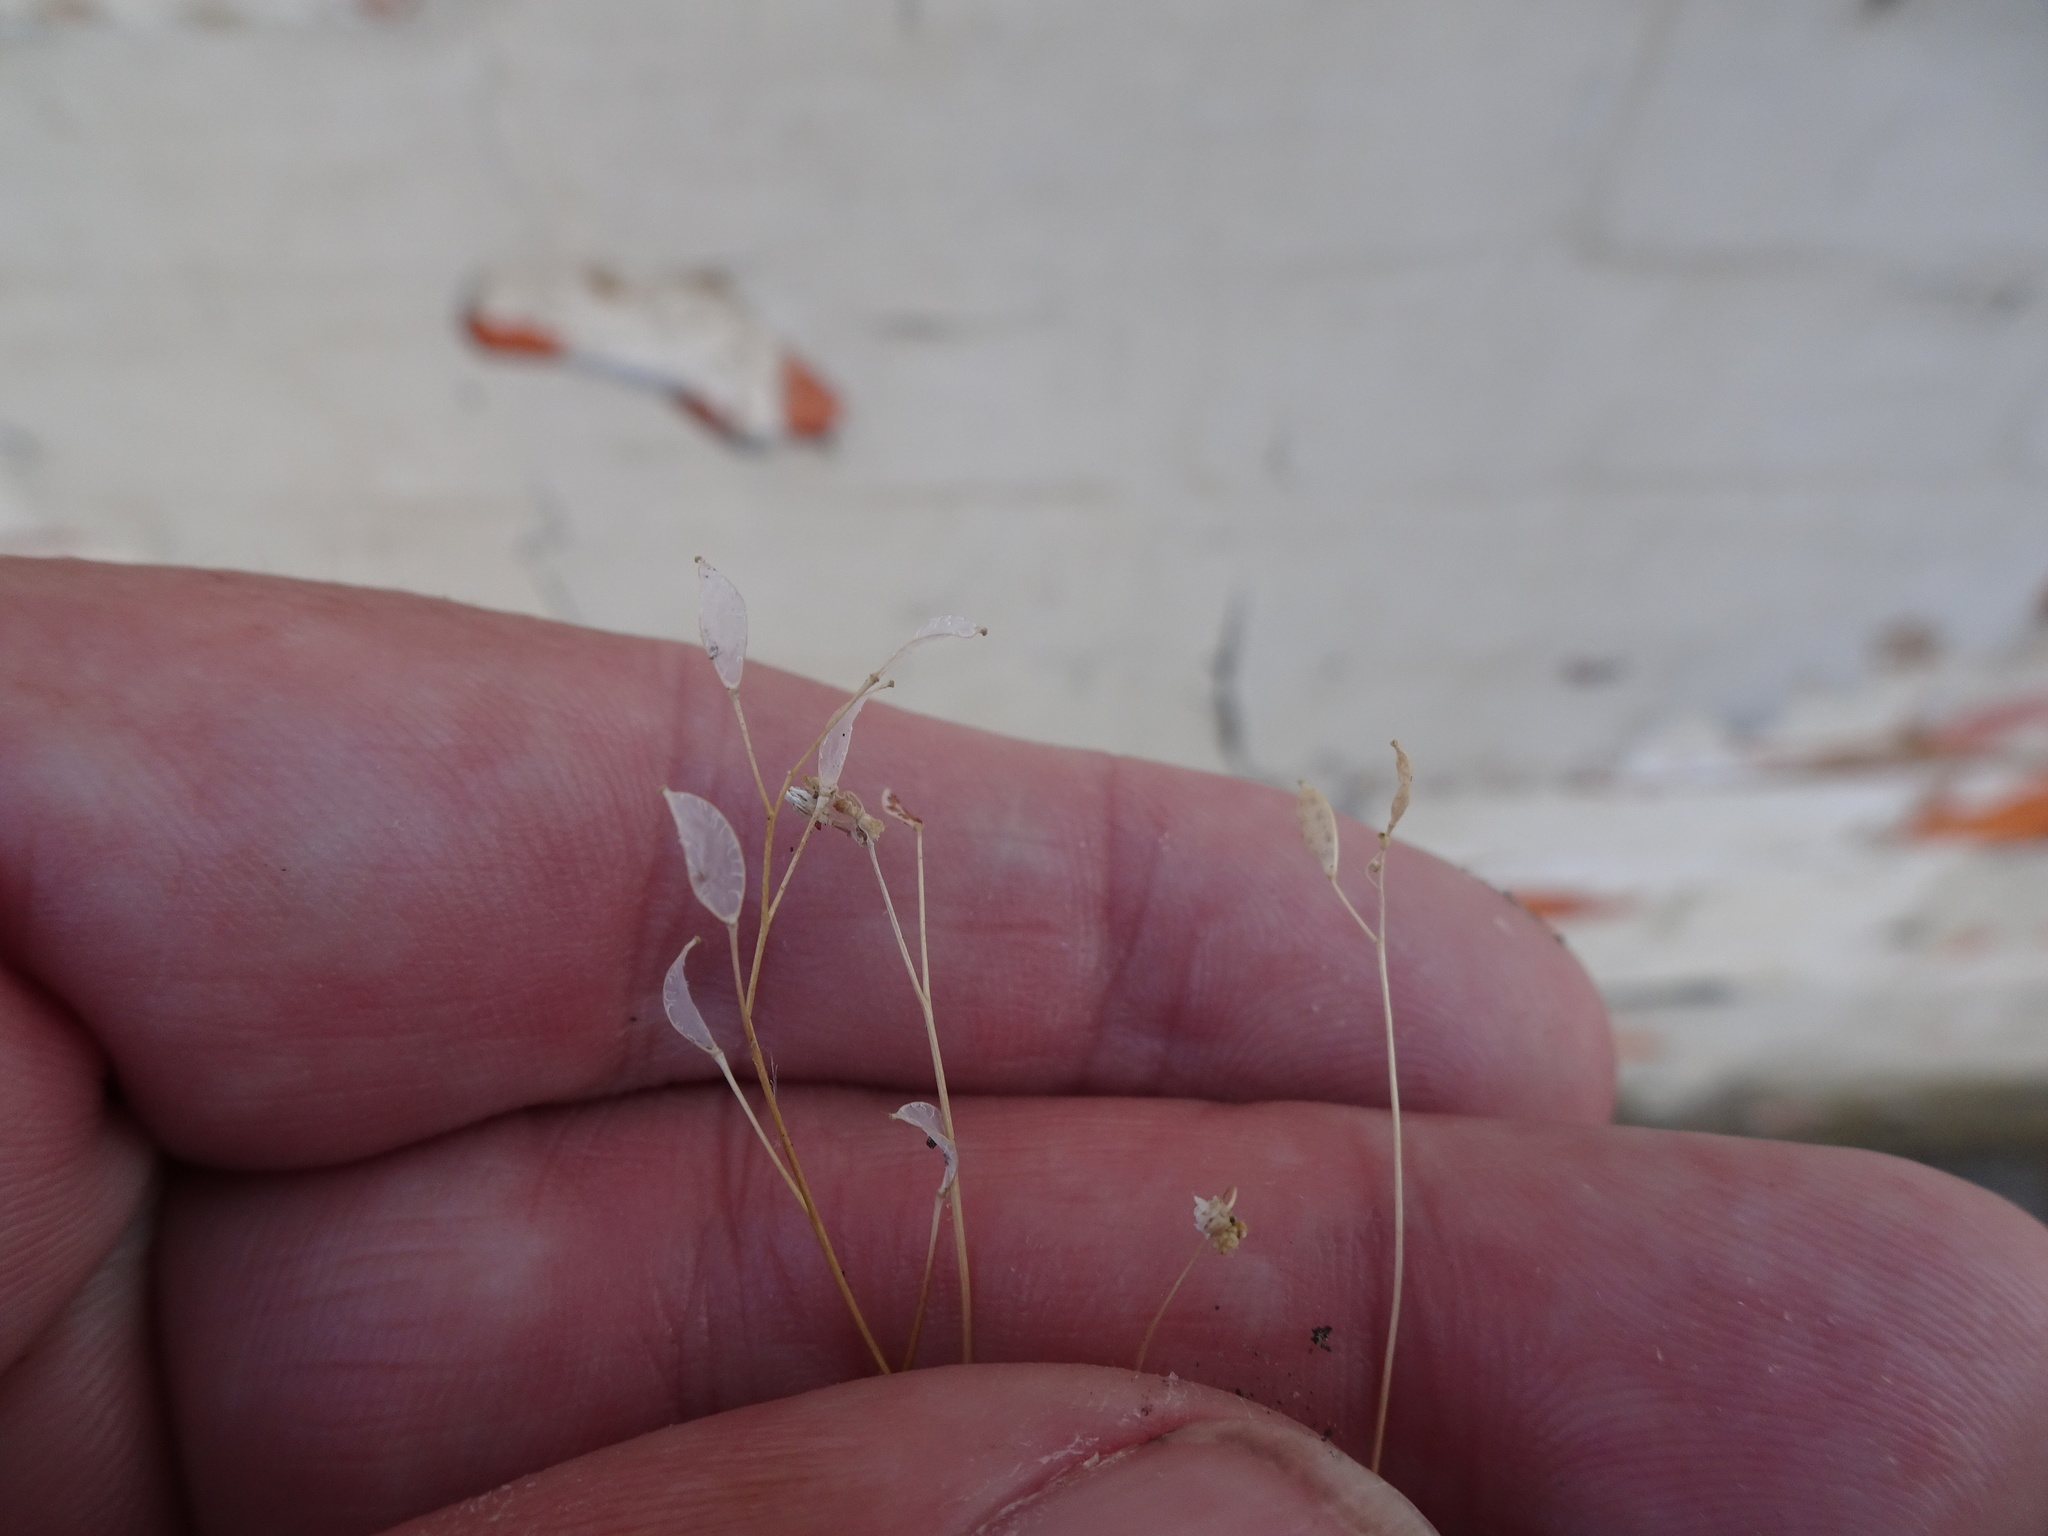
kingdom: Plantae
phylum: Tracheophyta
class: Magnoliopsida
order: Brassicales
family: Brassicaceae
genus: Draba
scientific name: Draba verna
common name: Spring draba
